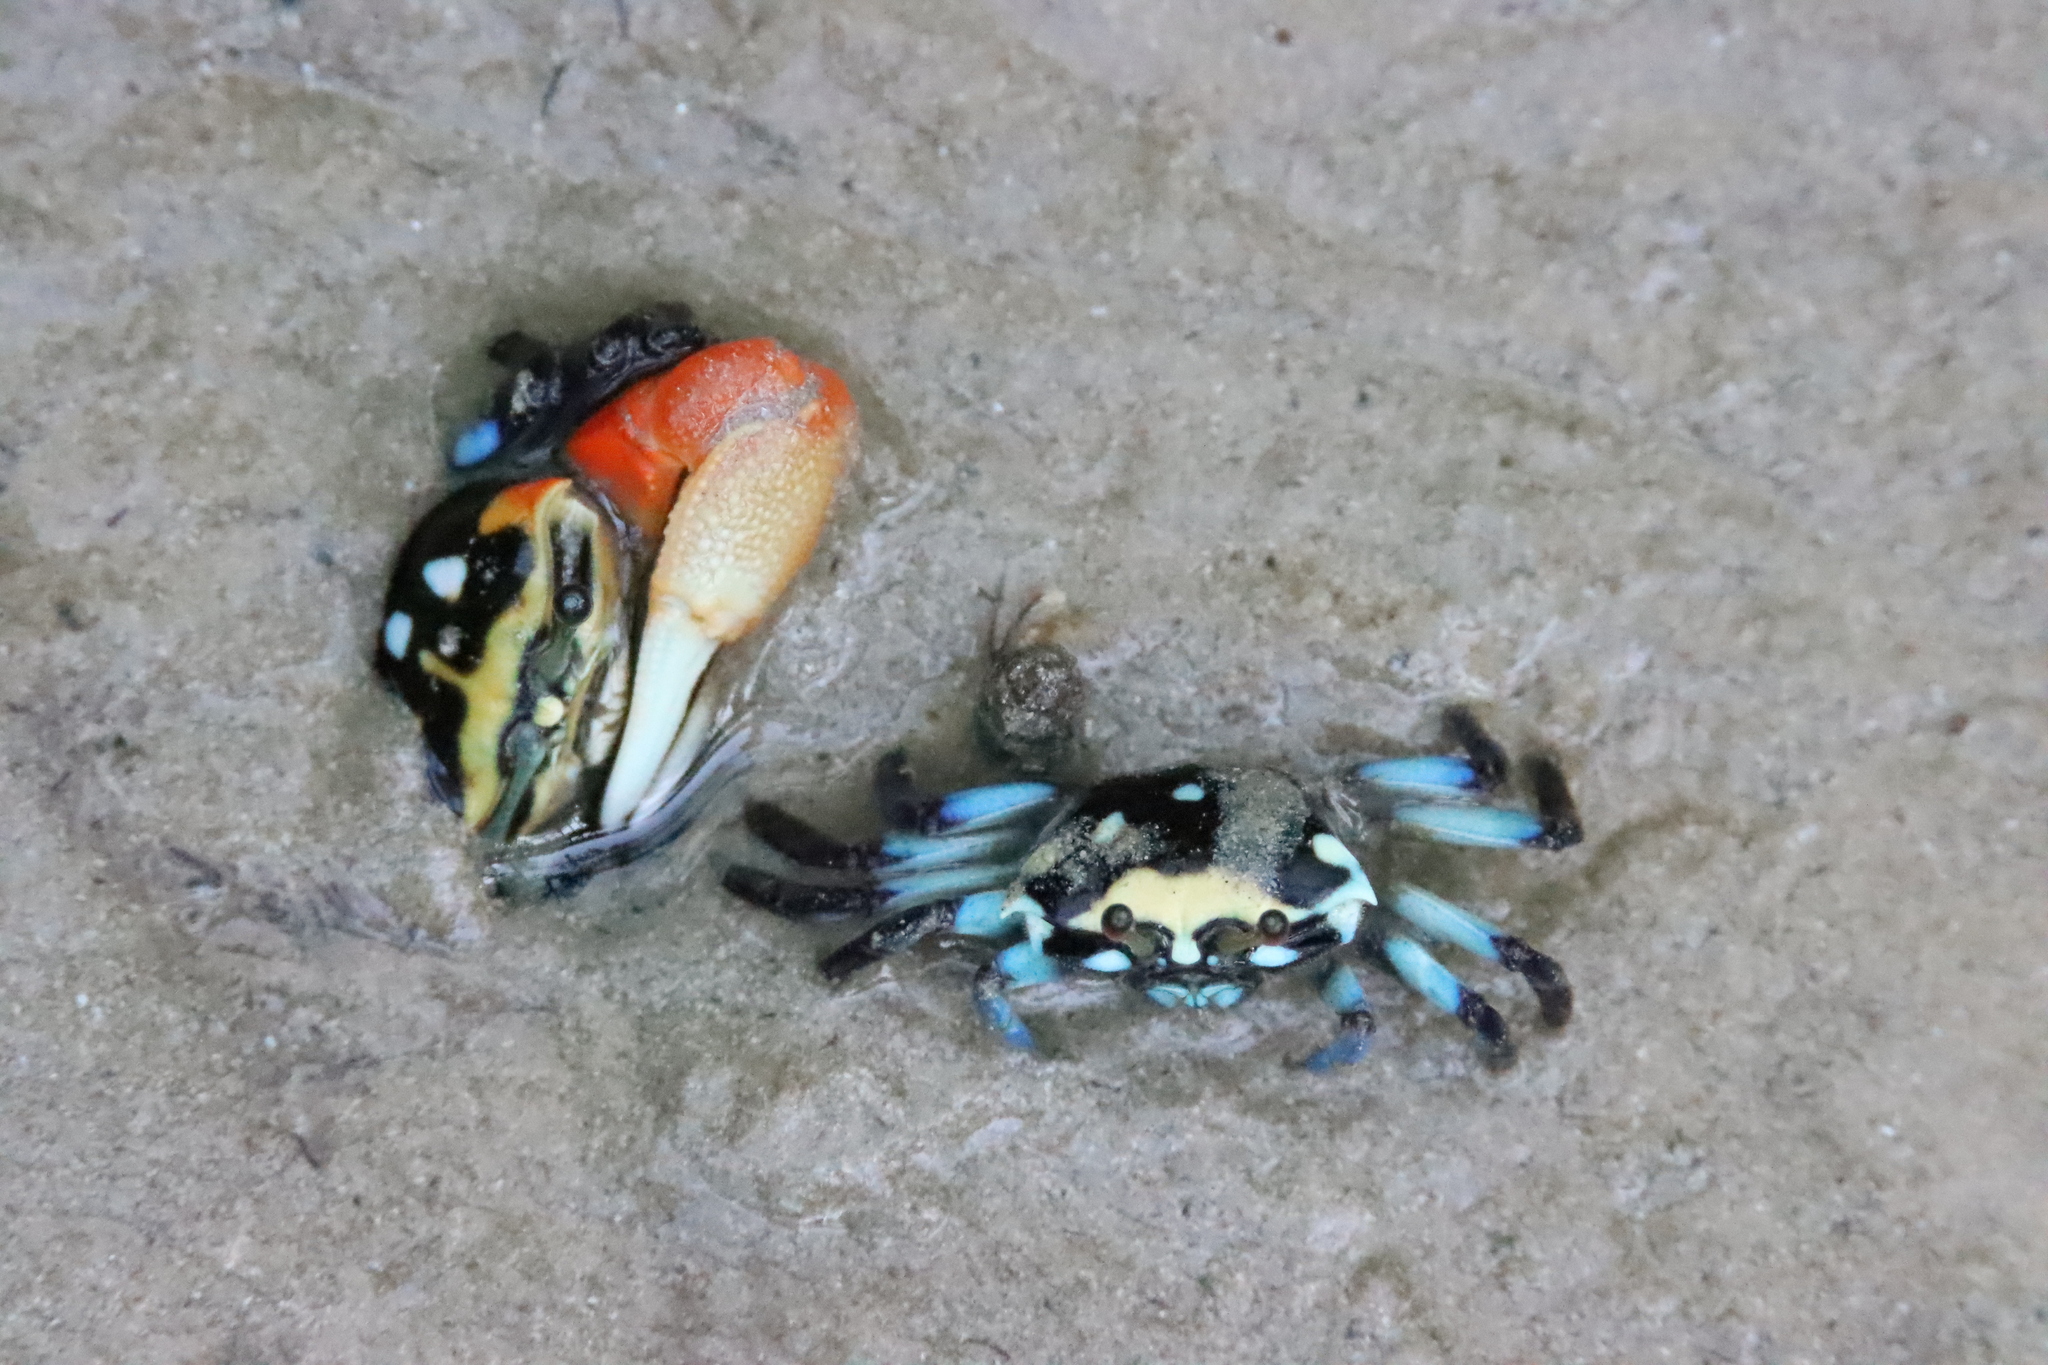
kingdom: Animalia
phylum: Arthropoda
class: Malacostraca
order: Decapoda
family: Ocypodidae
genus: Tubuca
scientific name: Tubuca capricornis
